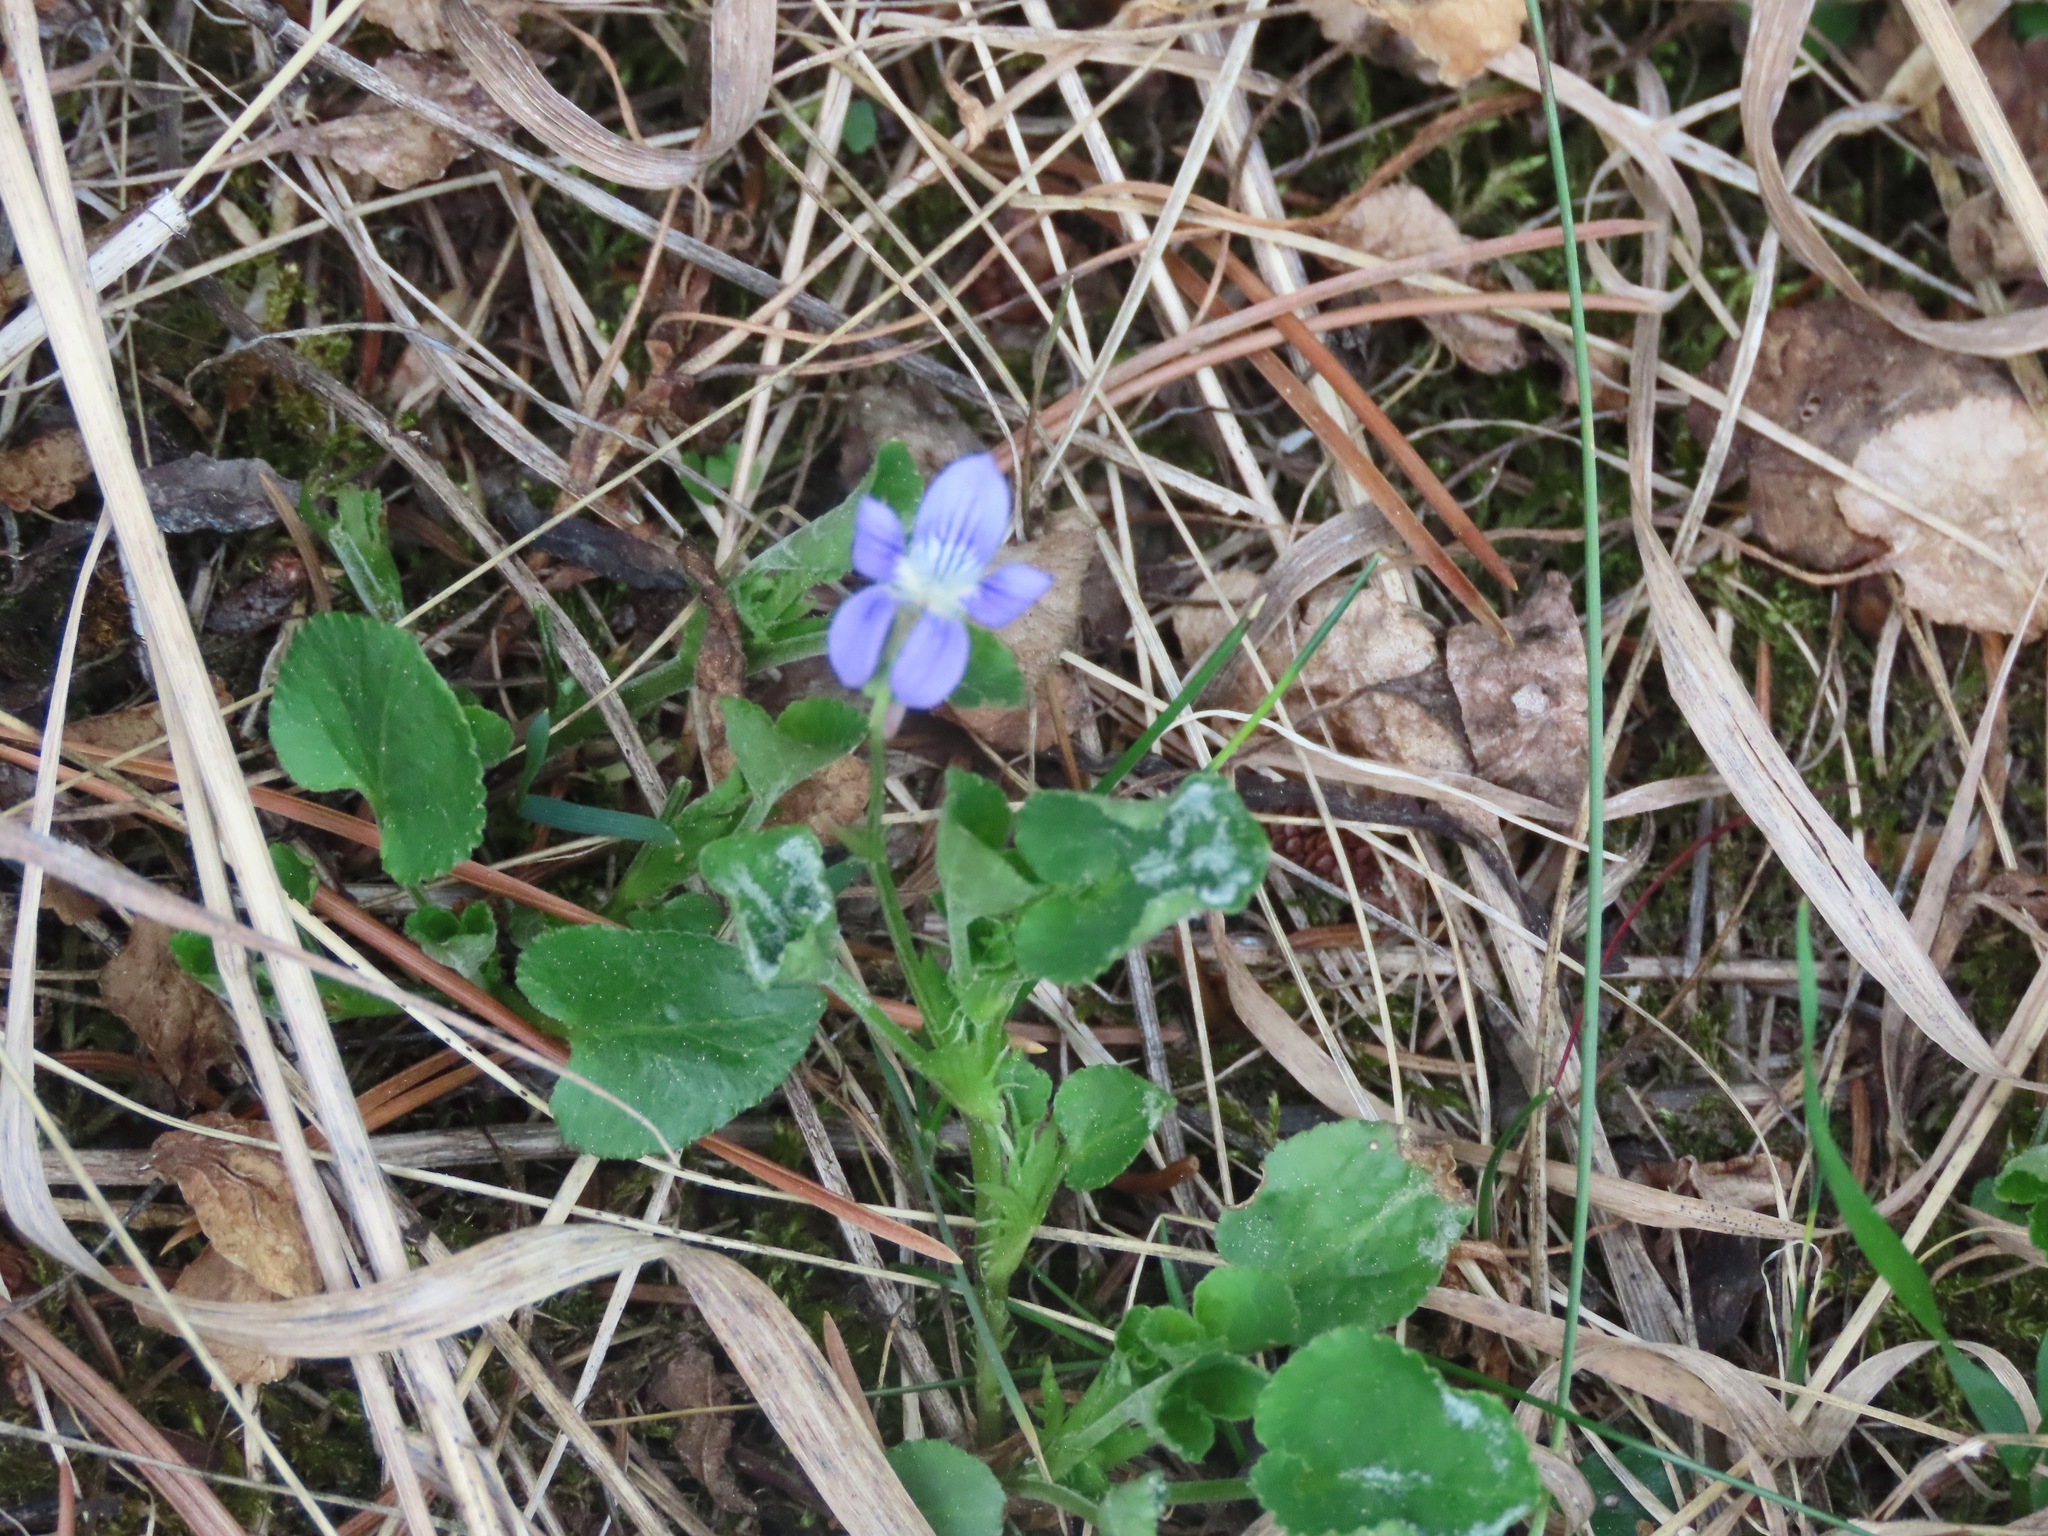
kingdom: Plantae
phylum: Tracheophyta
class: Magnoliopsida
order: Malpighiales
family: Violaceae
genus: Viola
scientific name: Viola adunca
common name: Sand violet
